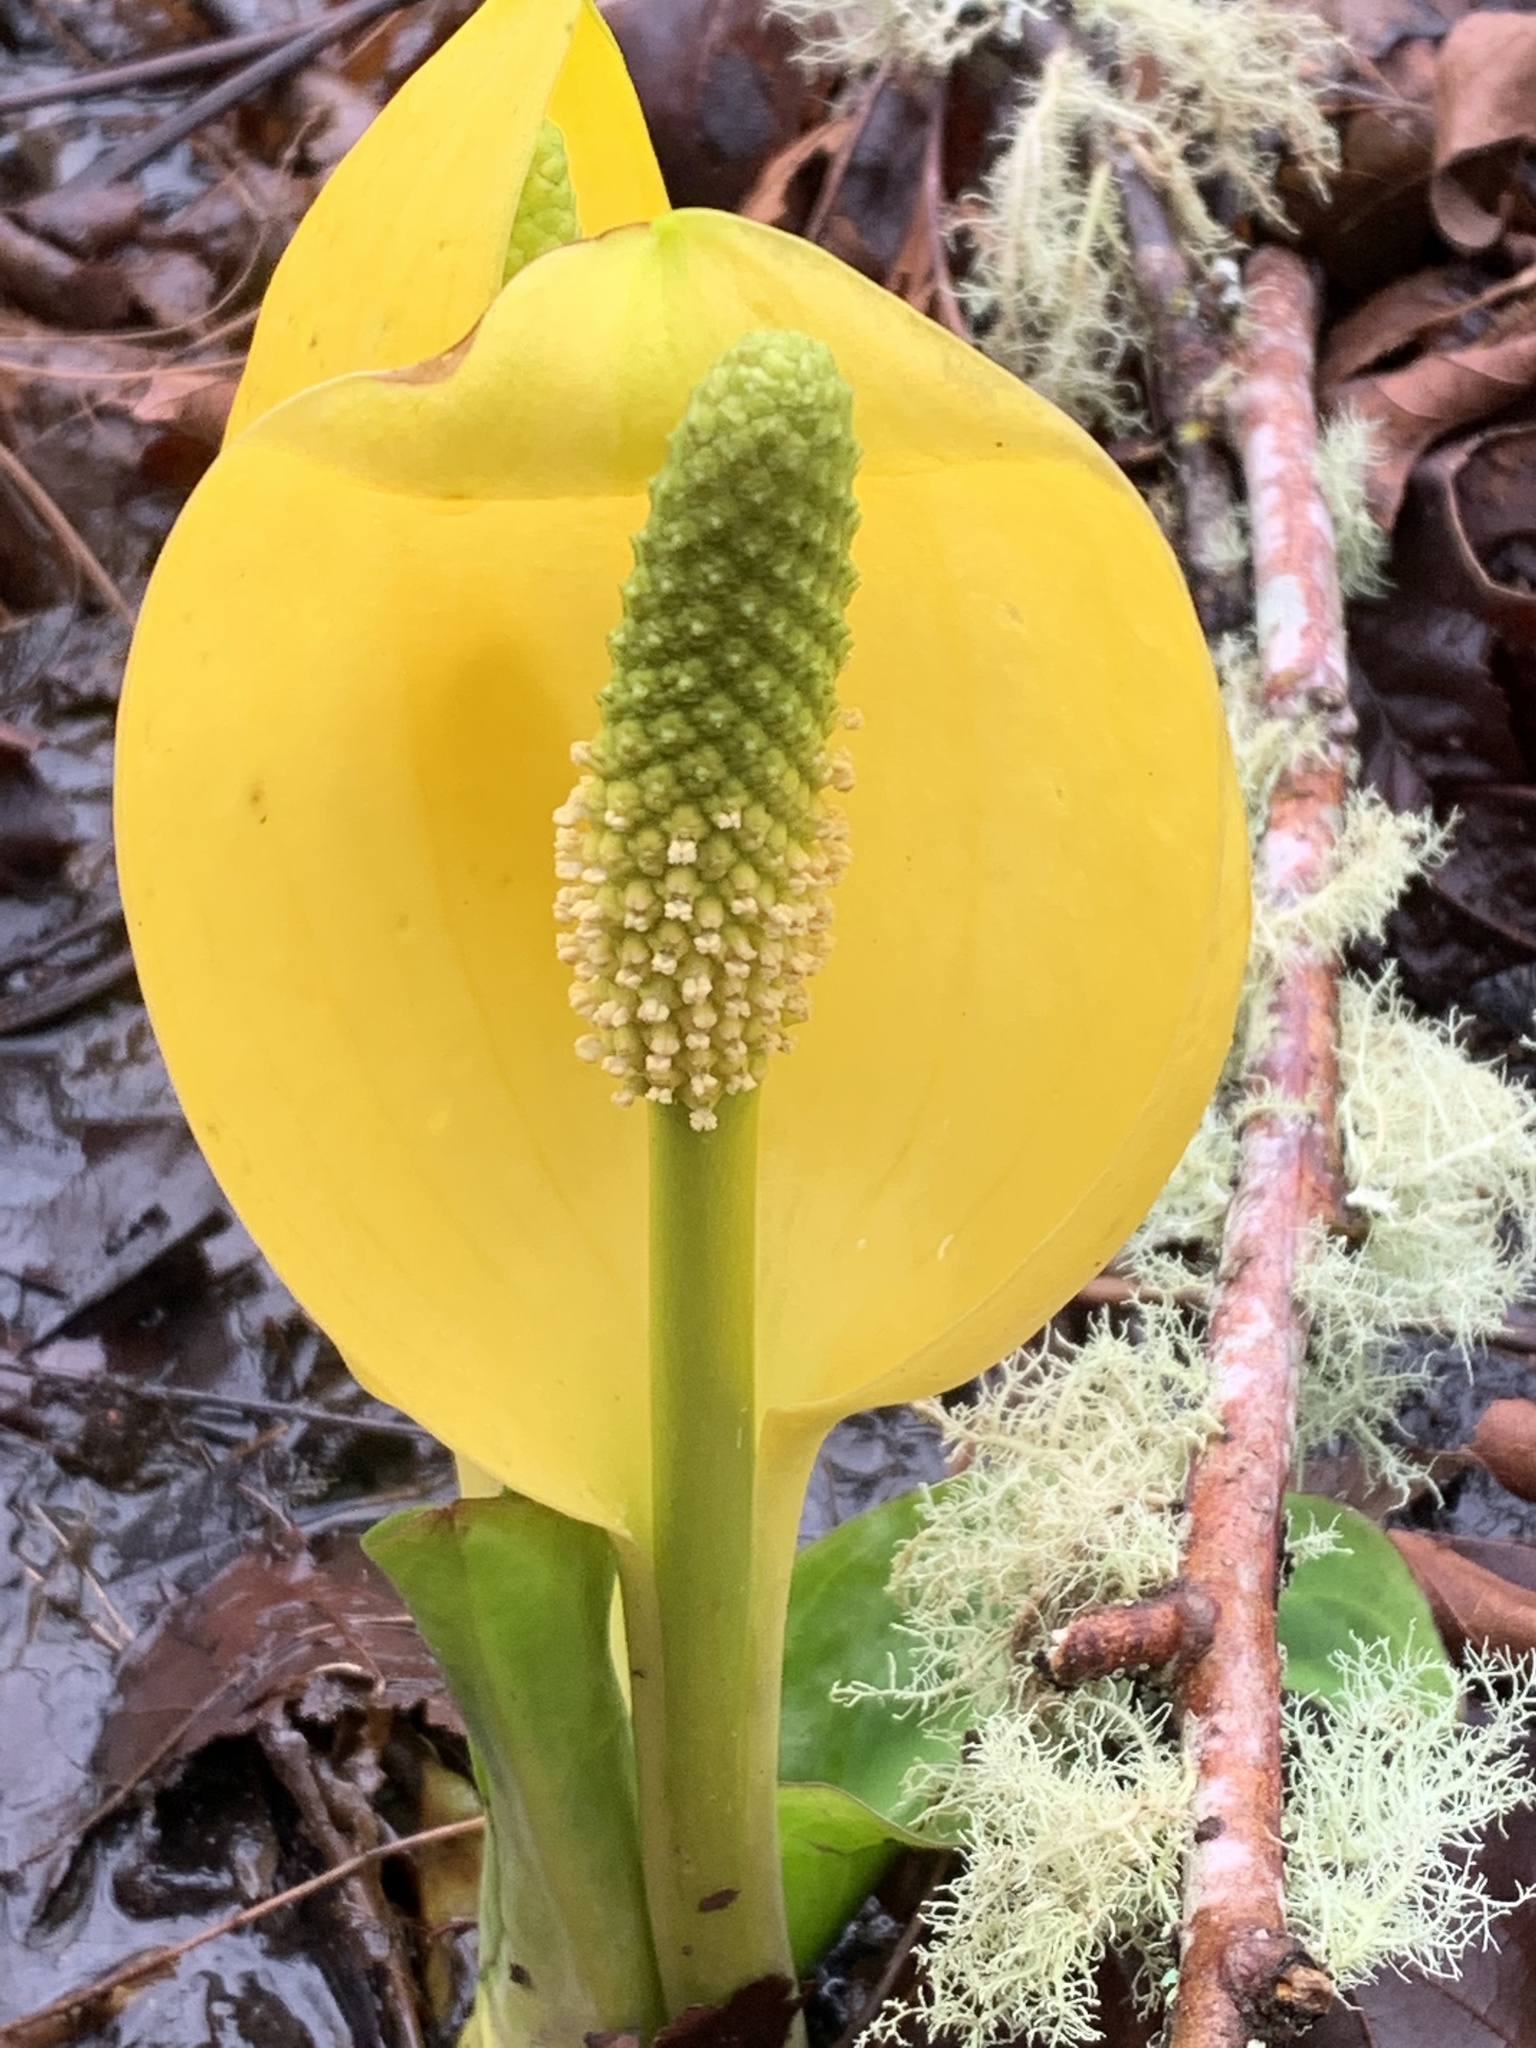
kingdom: Plantae
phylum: Tracheophyta
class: Liliopsida
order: Alismatales
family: Araceae
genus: Lysichiton
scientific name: Lysichiton americanus
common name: American skunk cabbage
